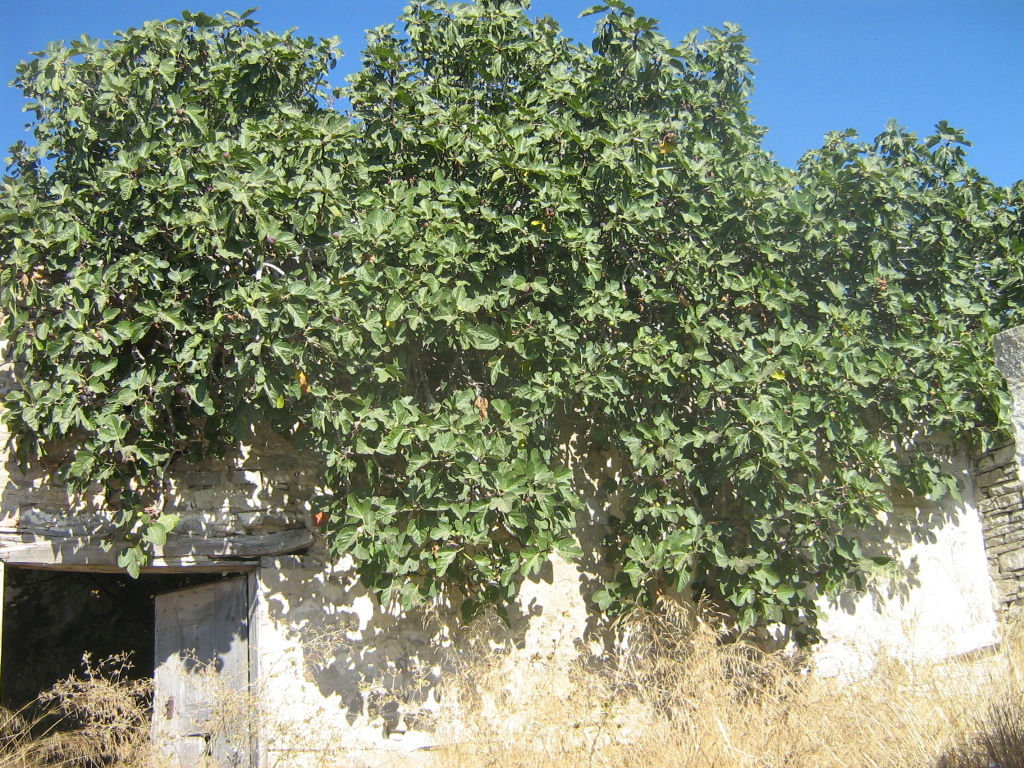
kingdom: Plantae
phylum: Tracheophyta
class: Magnoliopsida
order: Rosales
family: Moraceae
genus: Ficus
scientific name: Ficus carica
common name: Fig
